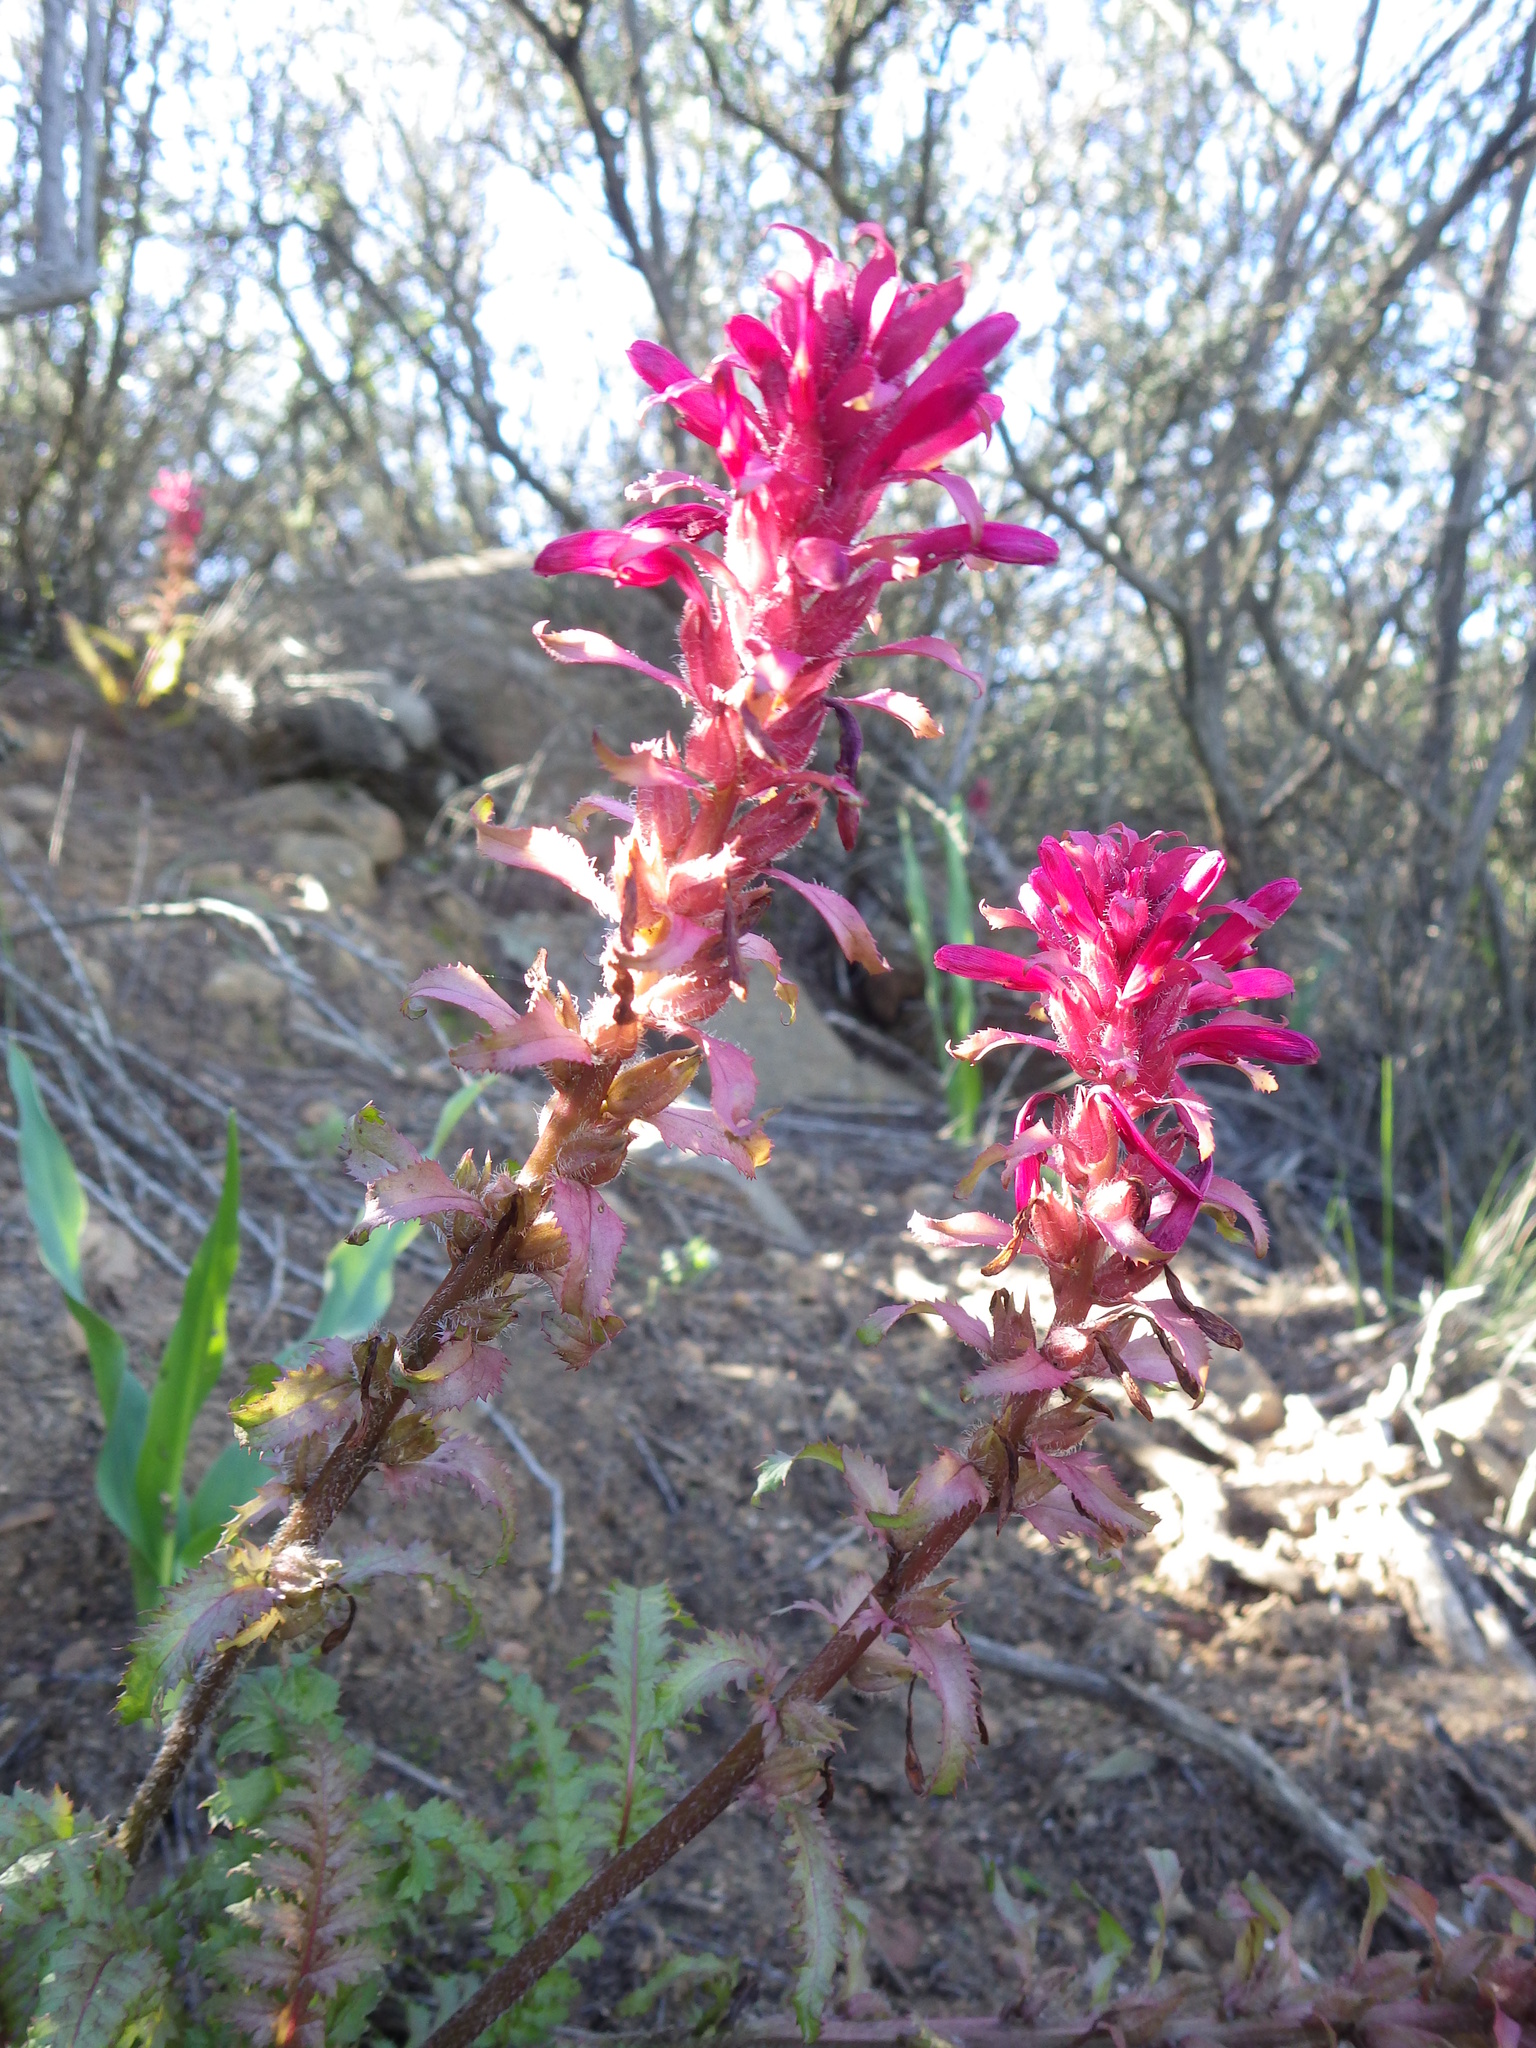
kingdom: Plantae
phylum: Tracheophyta
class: Magnoliopsida
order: Lamiales
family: Orobanchaceae
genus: Pedicularis
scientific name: Pedicularis densiflora
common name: Indian warrior
